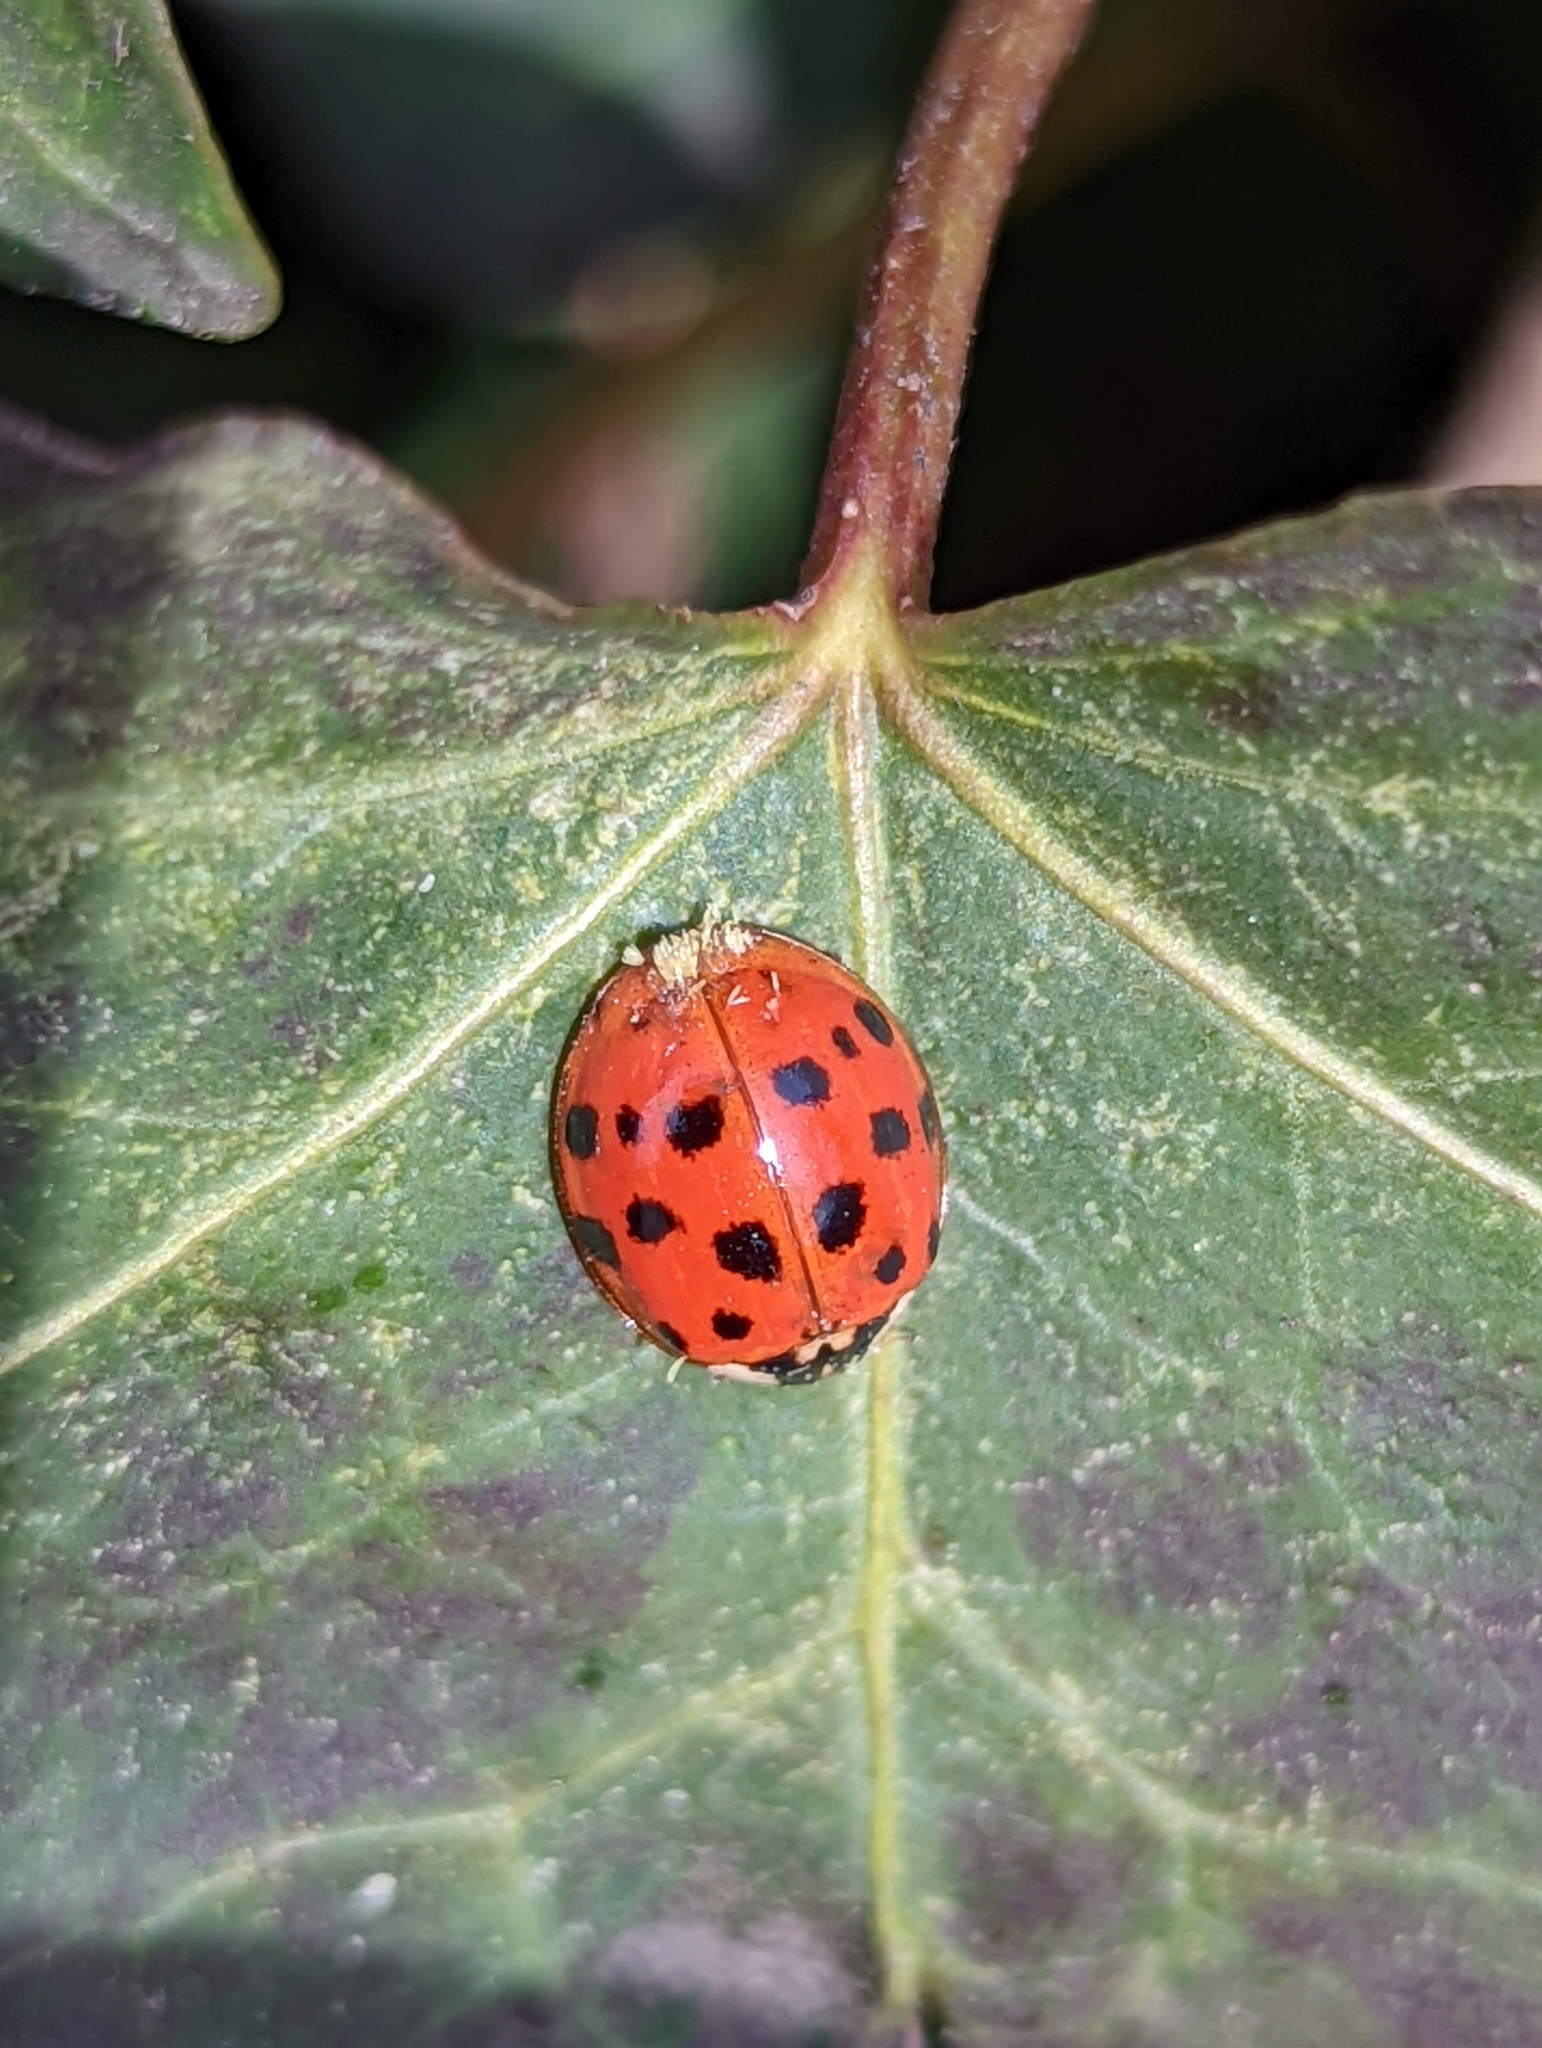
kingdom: Fungi
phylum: Ascomycota
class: Laboulbeniomycetes
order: Laboulbeniales
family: Laboulbeniaceae
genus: Hesperomyces
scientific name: Hesperomyces harmoniae
